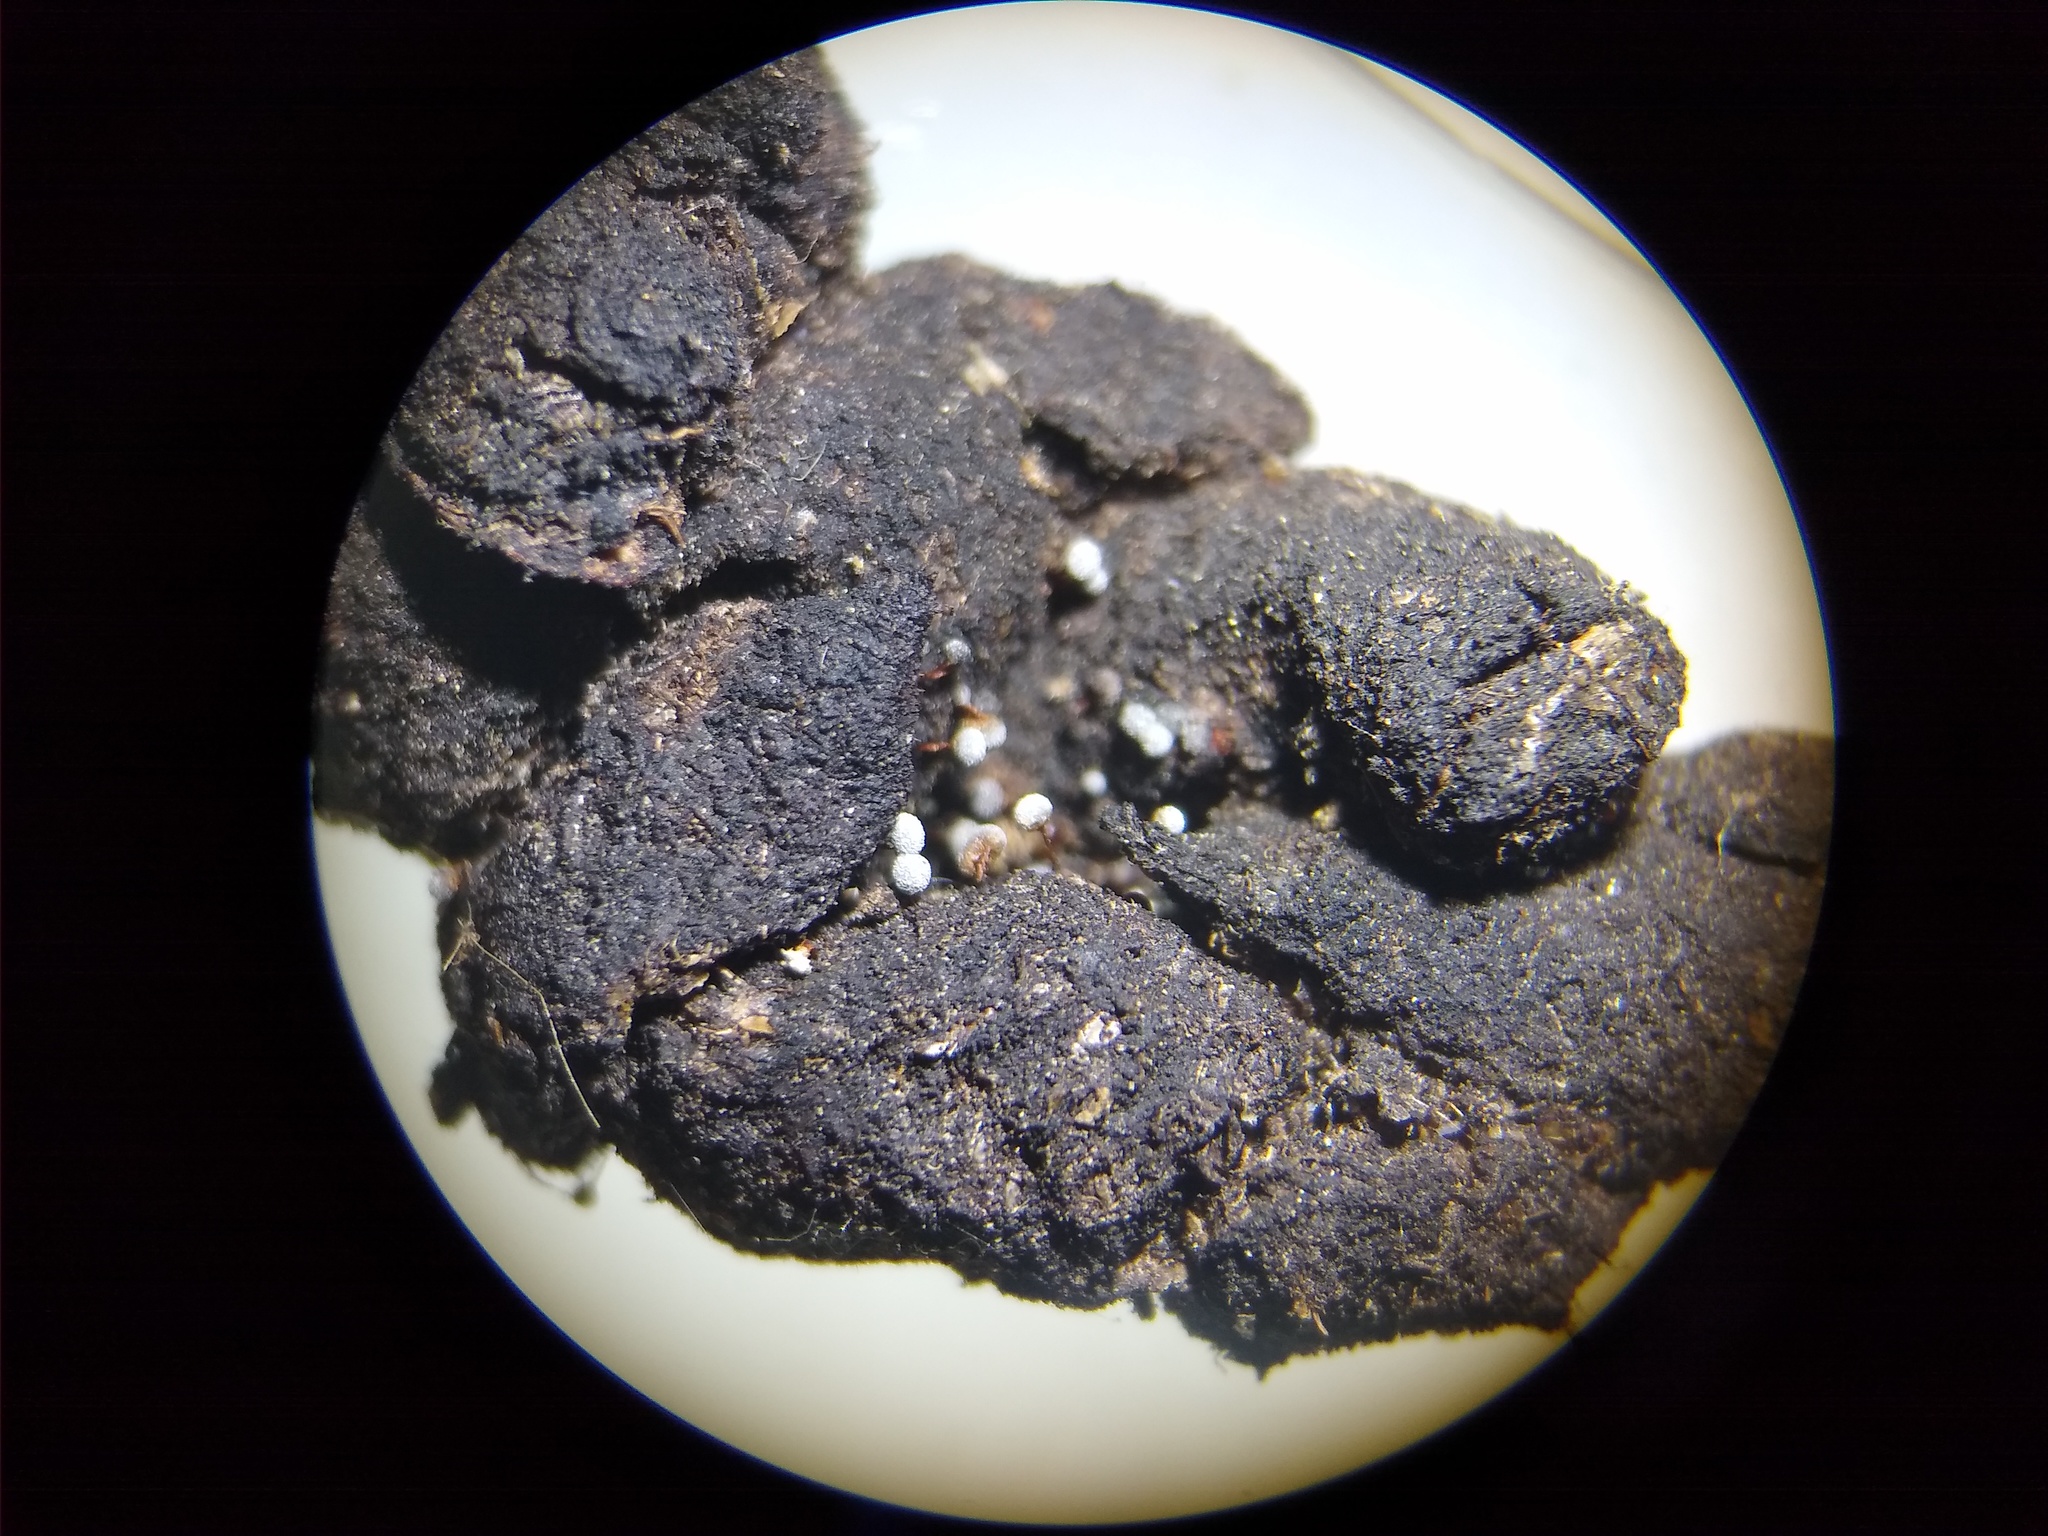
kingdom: Protozoa
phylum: Mycetozoa
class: Myxomycetes
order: Physarales
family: Physaraceae
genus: Physarum
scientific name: Physarum pusillum
